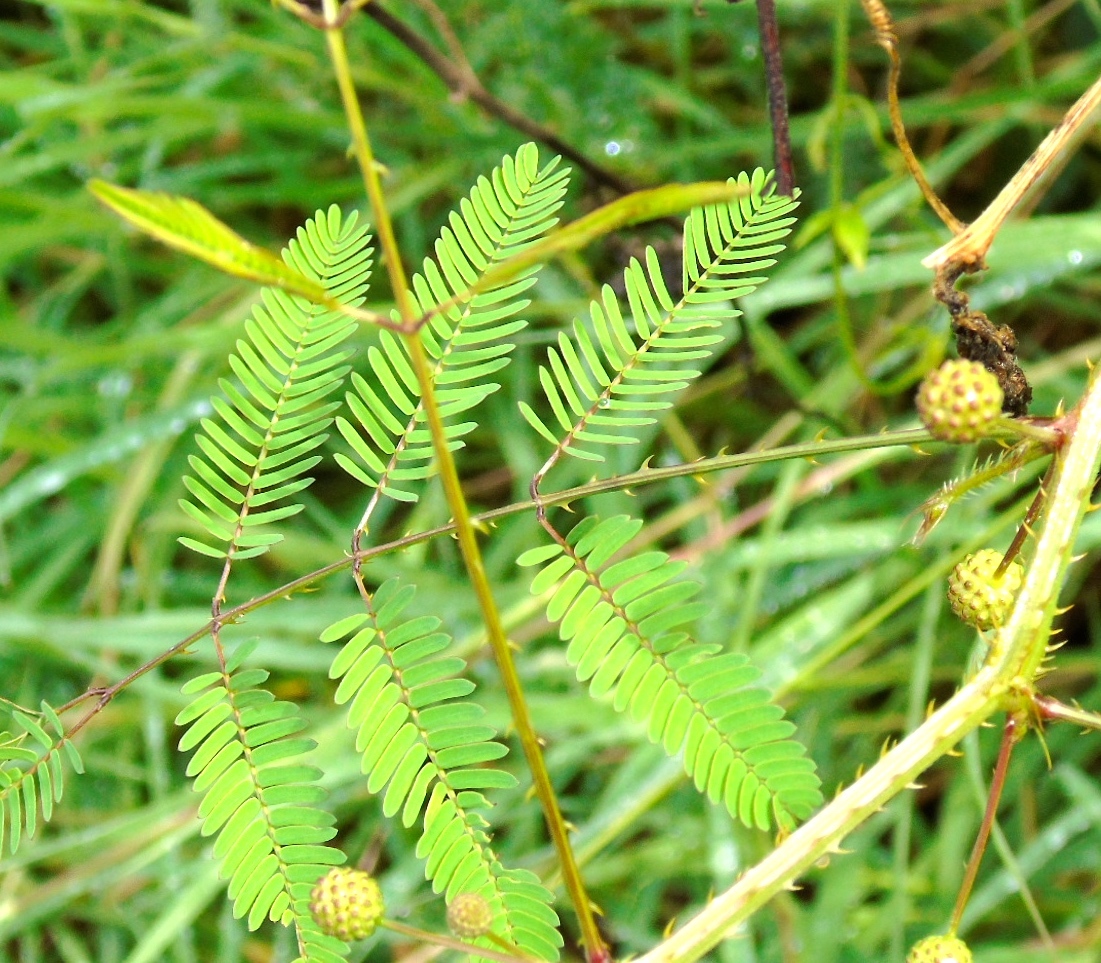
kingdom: Plantae
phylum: Tracheophyta
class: Magnoliopsida
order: Fabales
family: Fabaceae
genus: Mimosa
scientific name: Mimosa quadrivalvis
